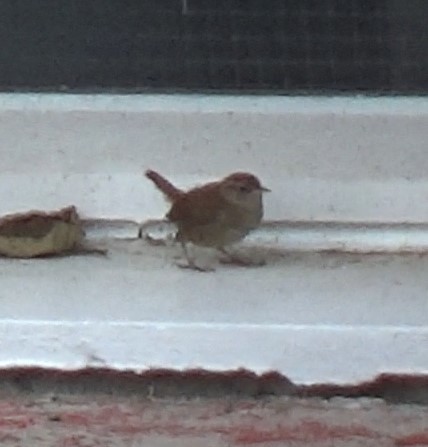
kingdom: Animalia
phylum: Chordata
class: Aves
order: Passeriformes
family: Troglodytidae
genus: Troglodytes
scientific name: Troglodytes troglodytes
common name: Eurasian wren
